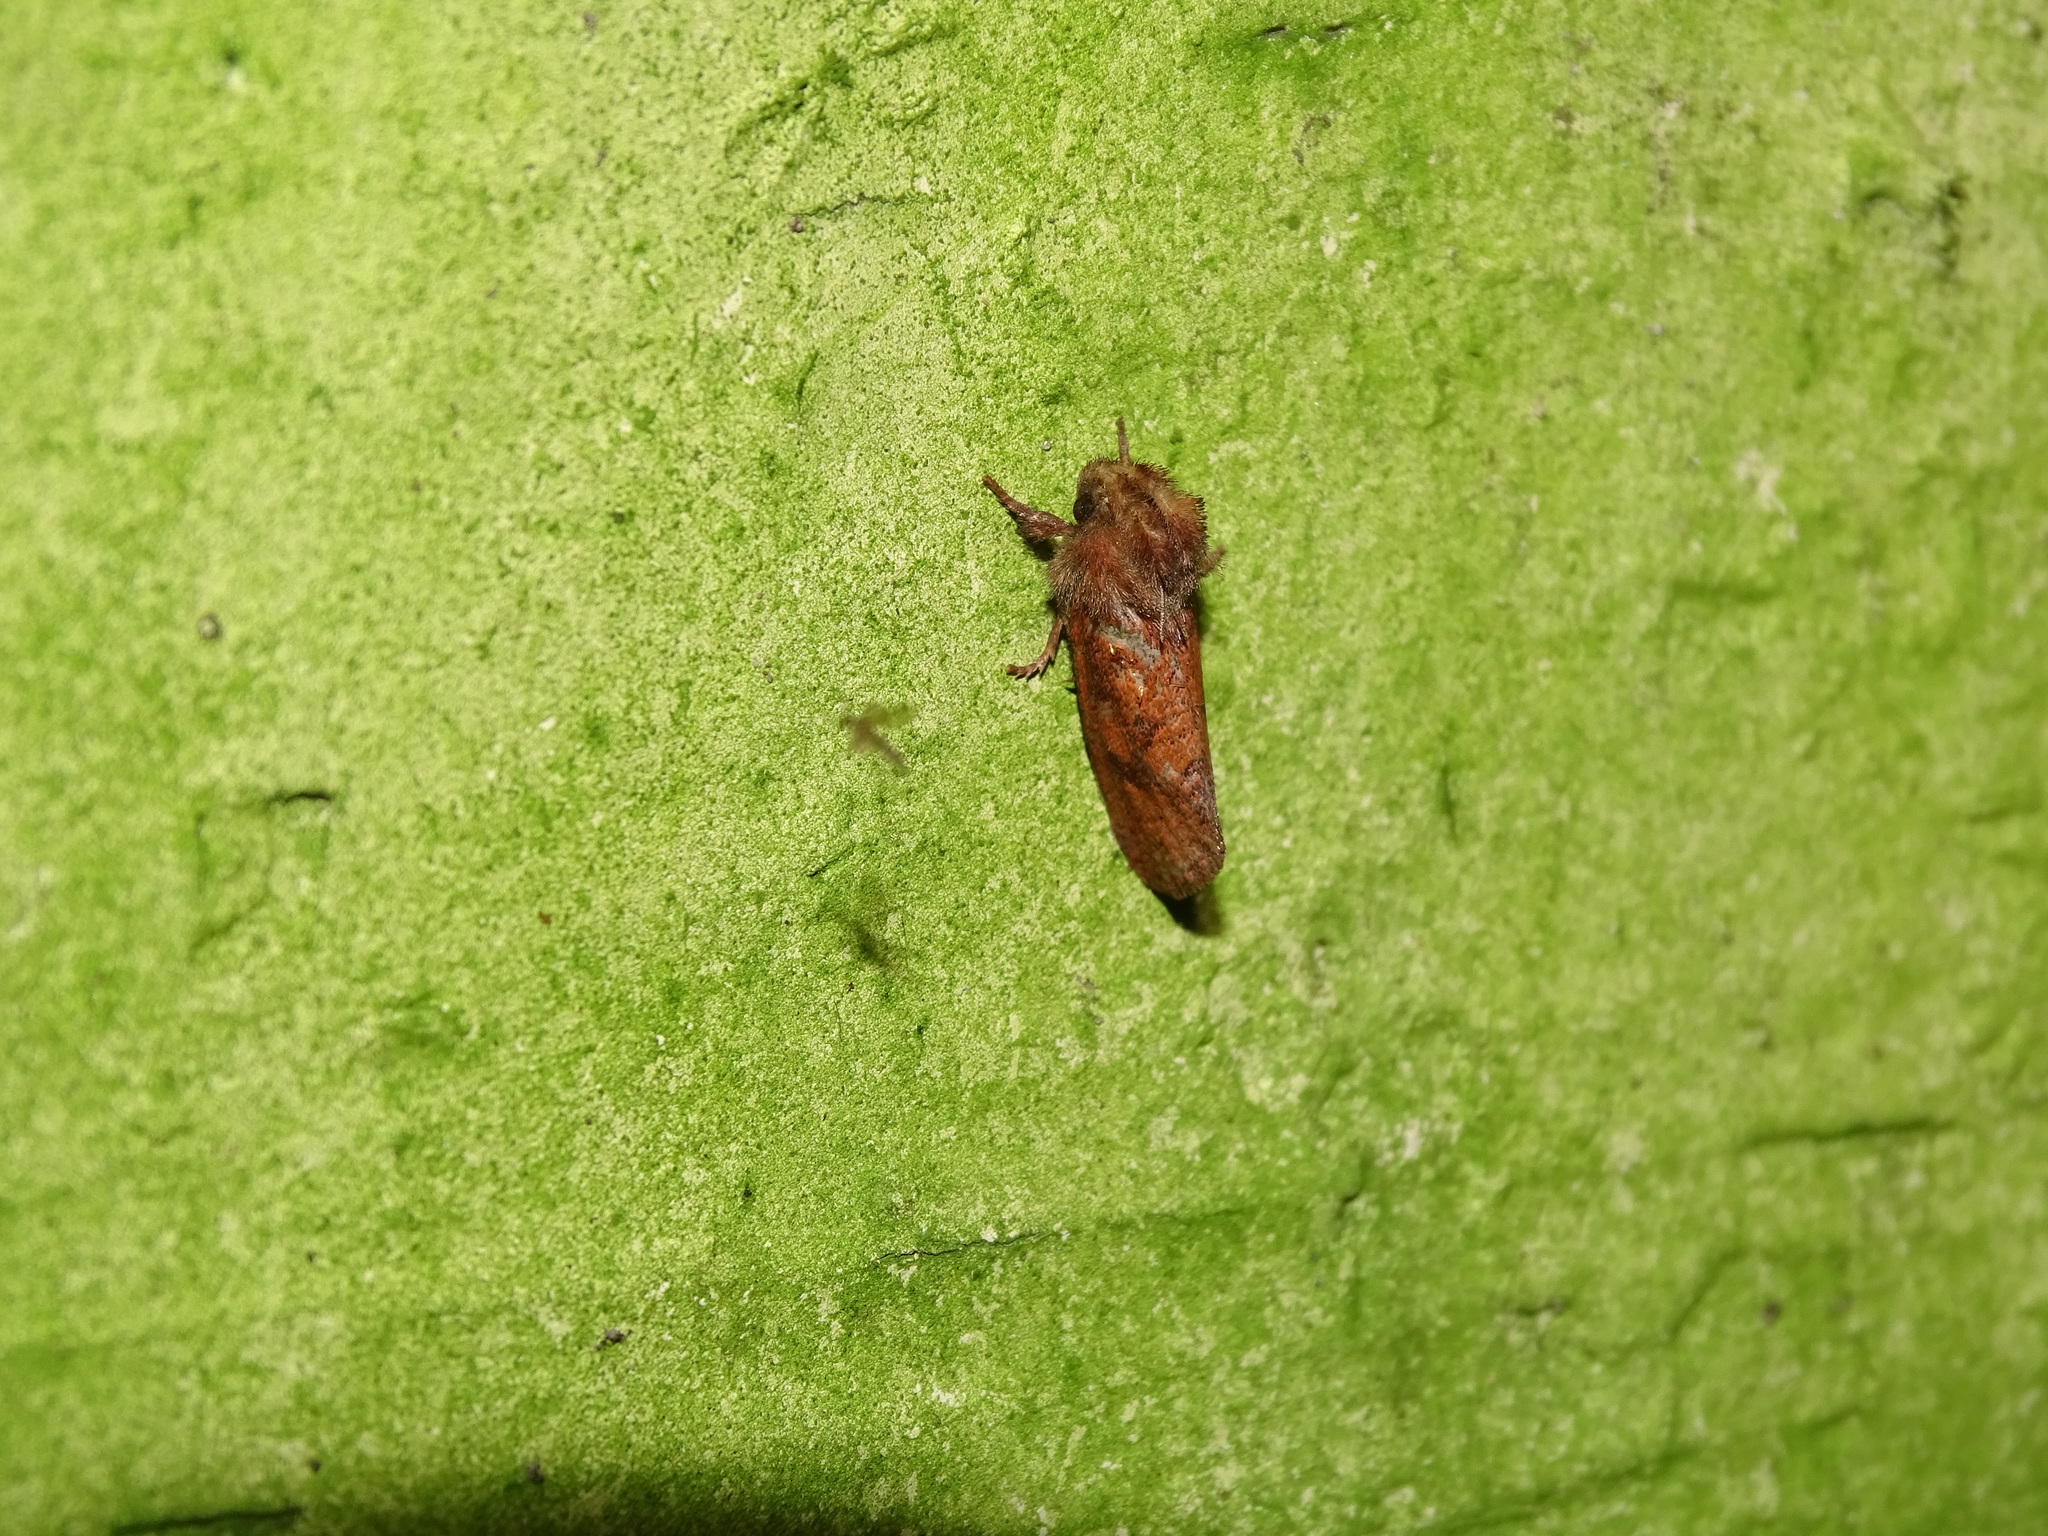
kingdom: Animalia
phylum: Arthropoda
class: Insecta
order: Lepidoptera
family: Tineidae
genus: Acrolophus
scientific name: Acrolophus plumifrontella
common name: Eastern grass tubeworm moth
